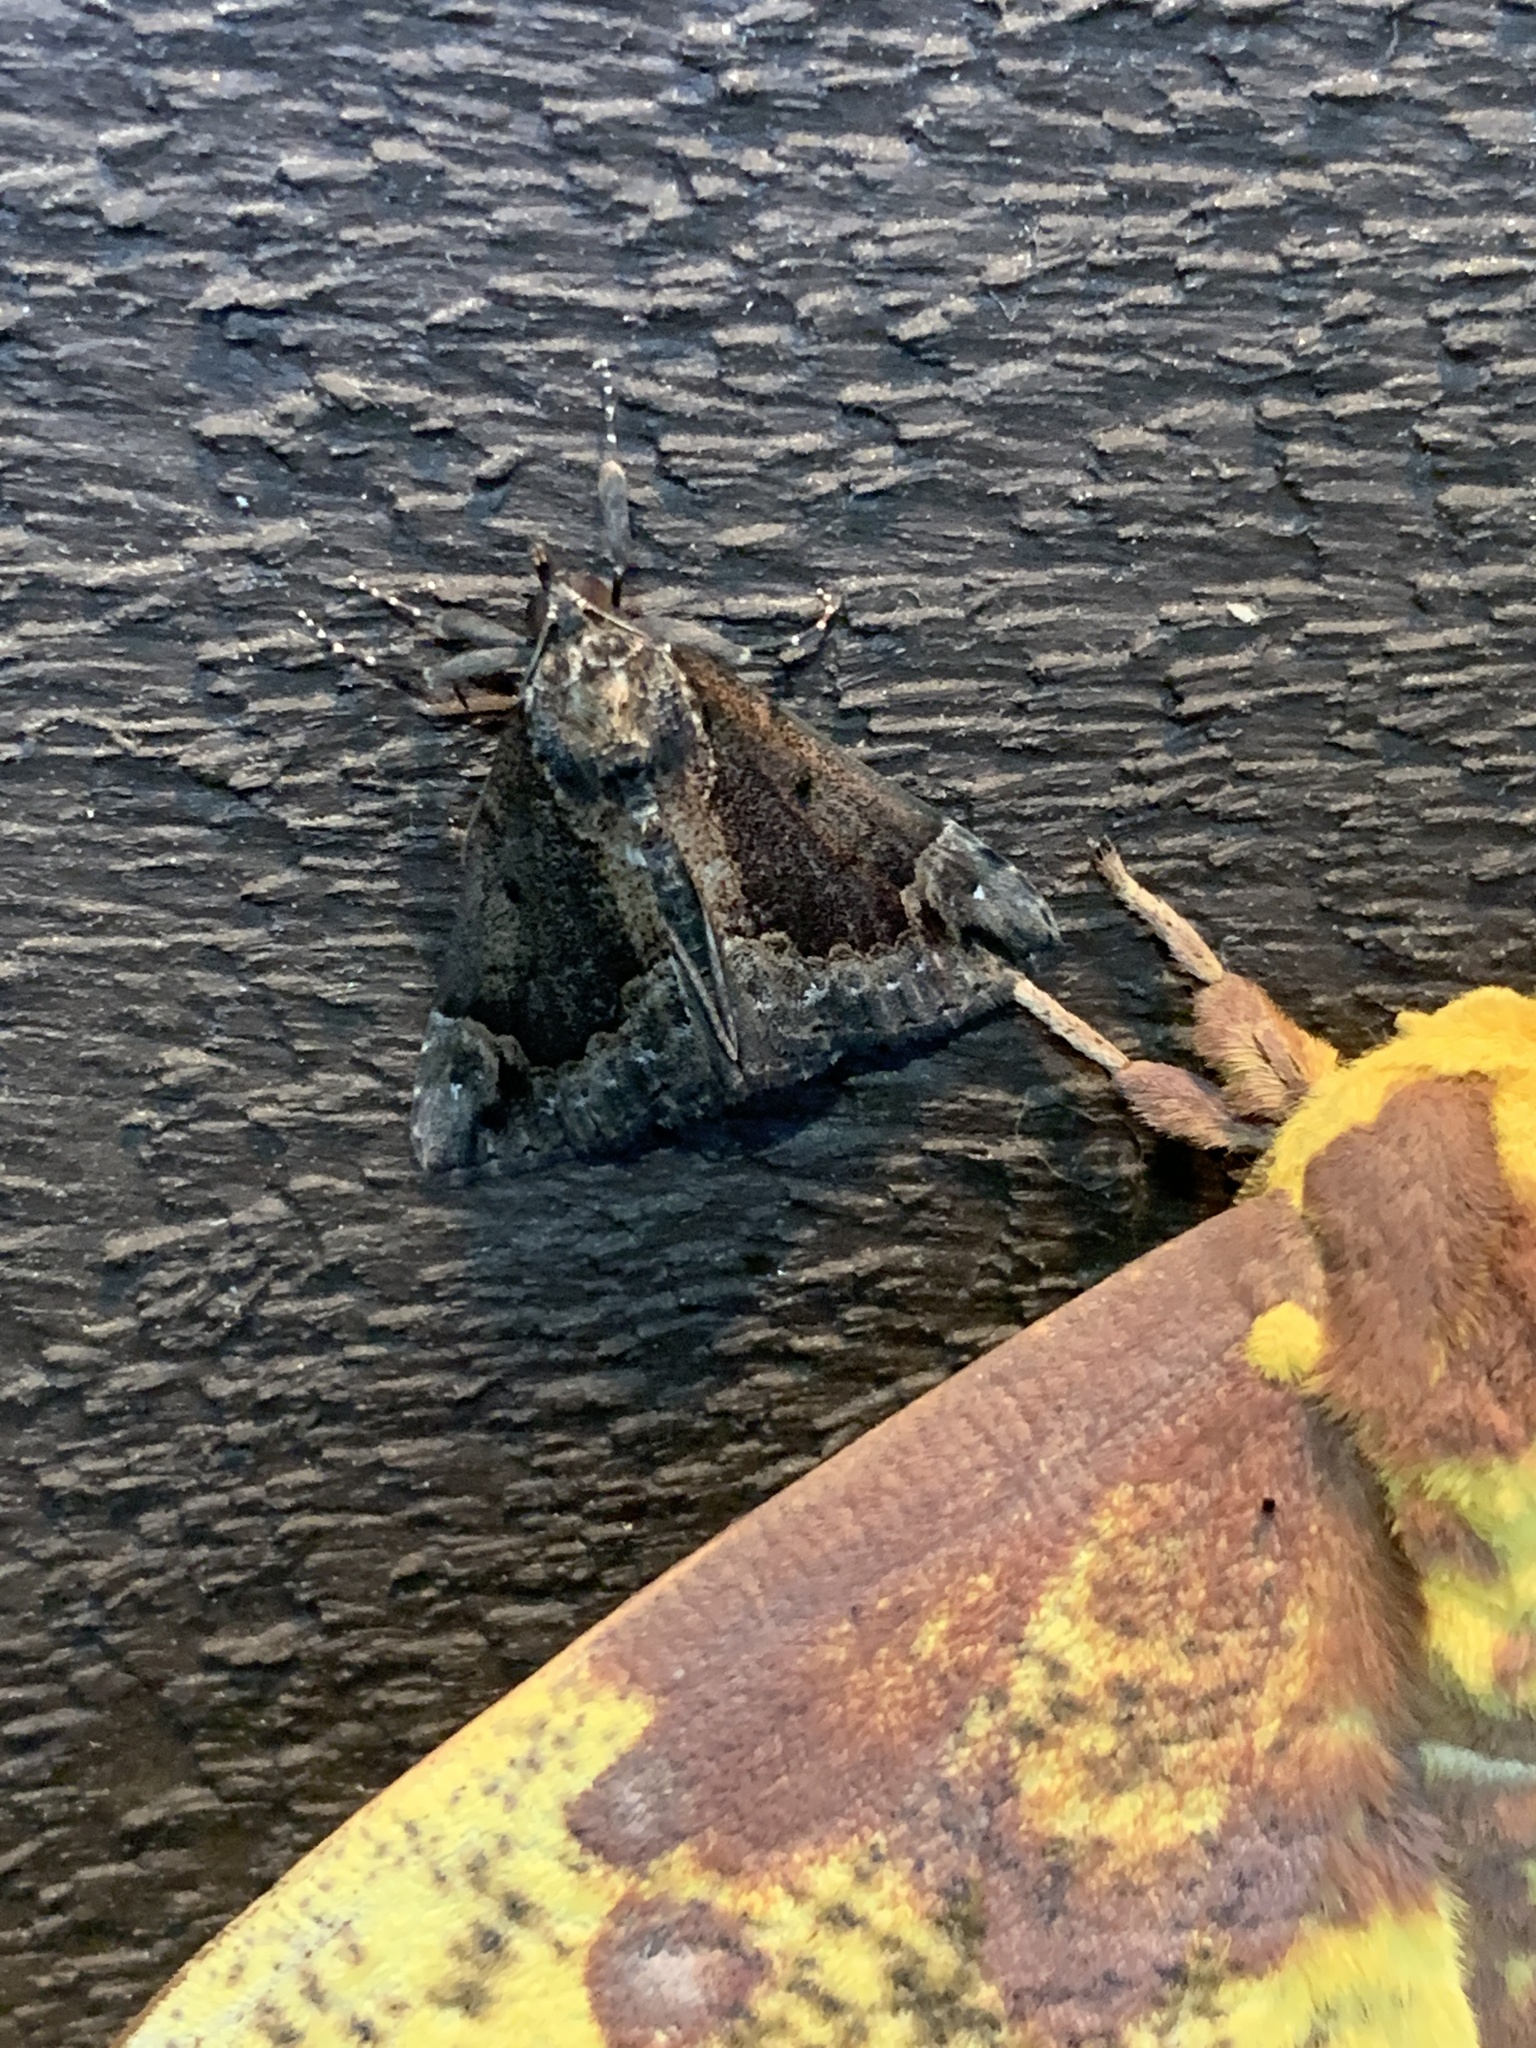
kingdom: Animalia
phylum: Arthropoda
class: Insecta
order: Lepidoptera
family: Erebidae
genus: Hypena
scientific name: Hypena baltimoralis
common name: Baltimore snout
